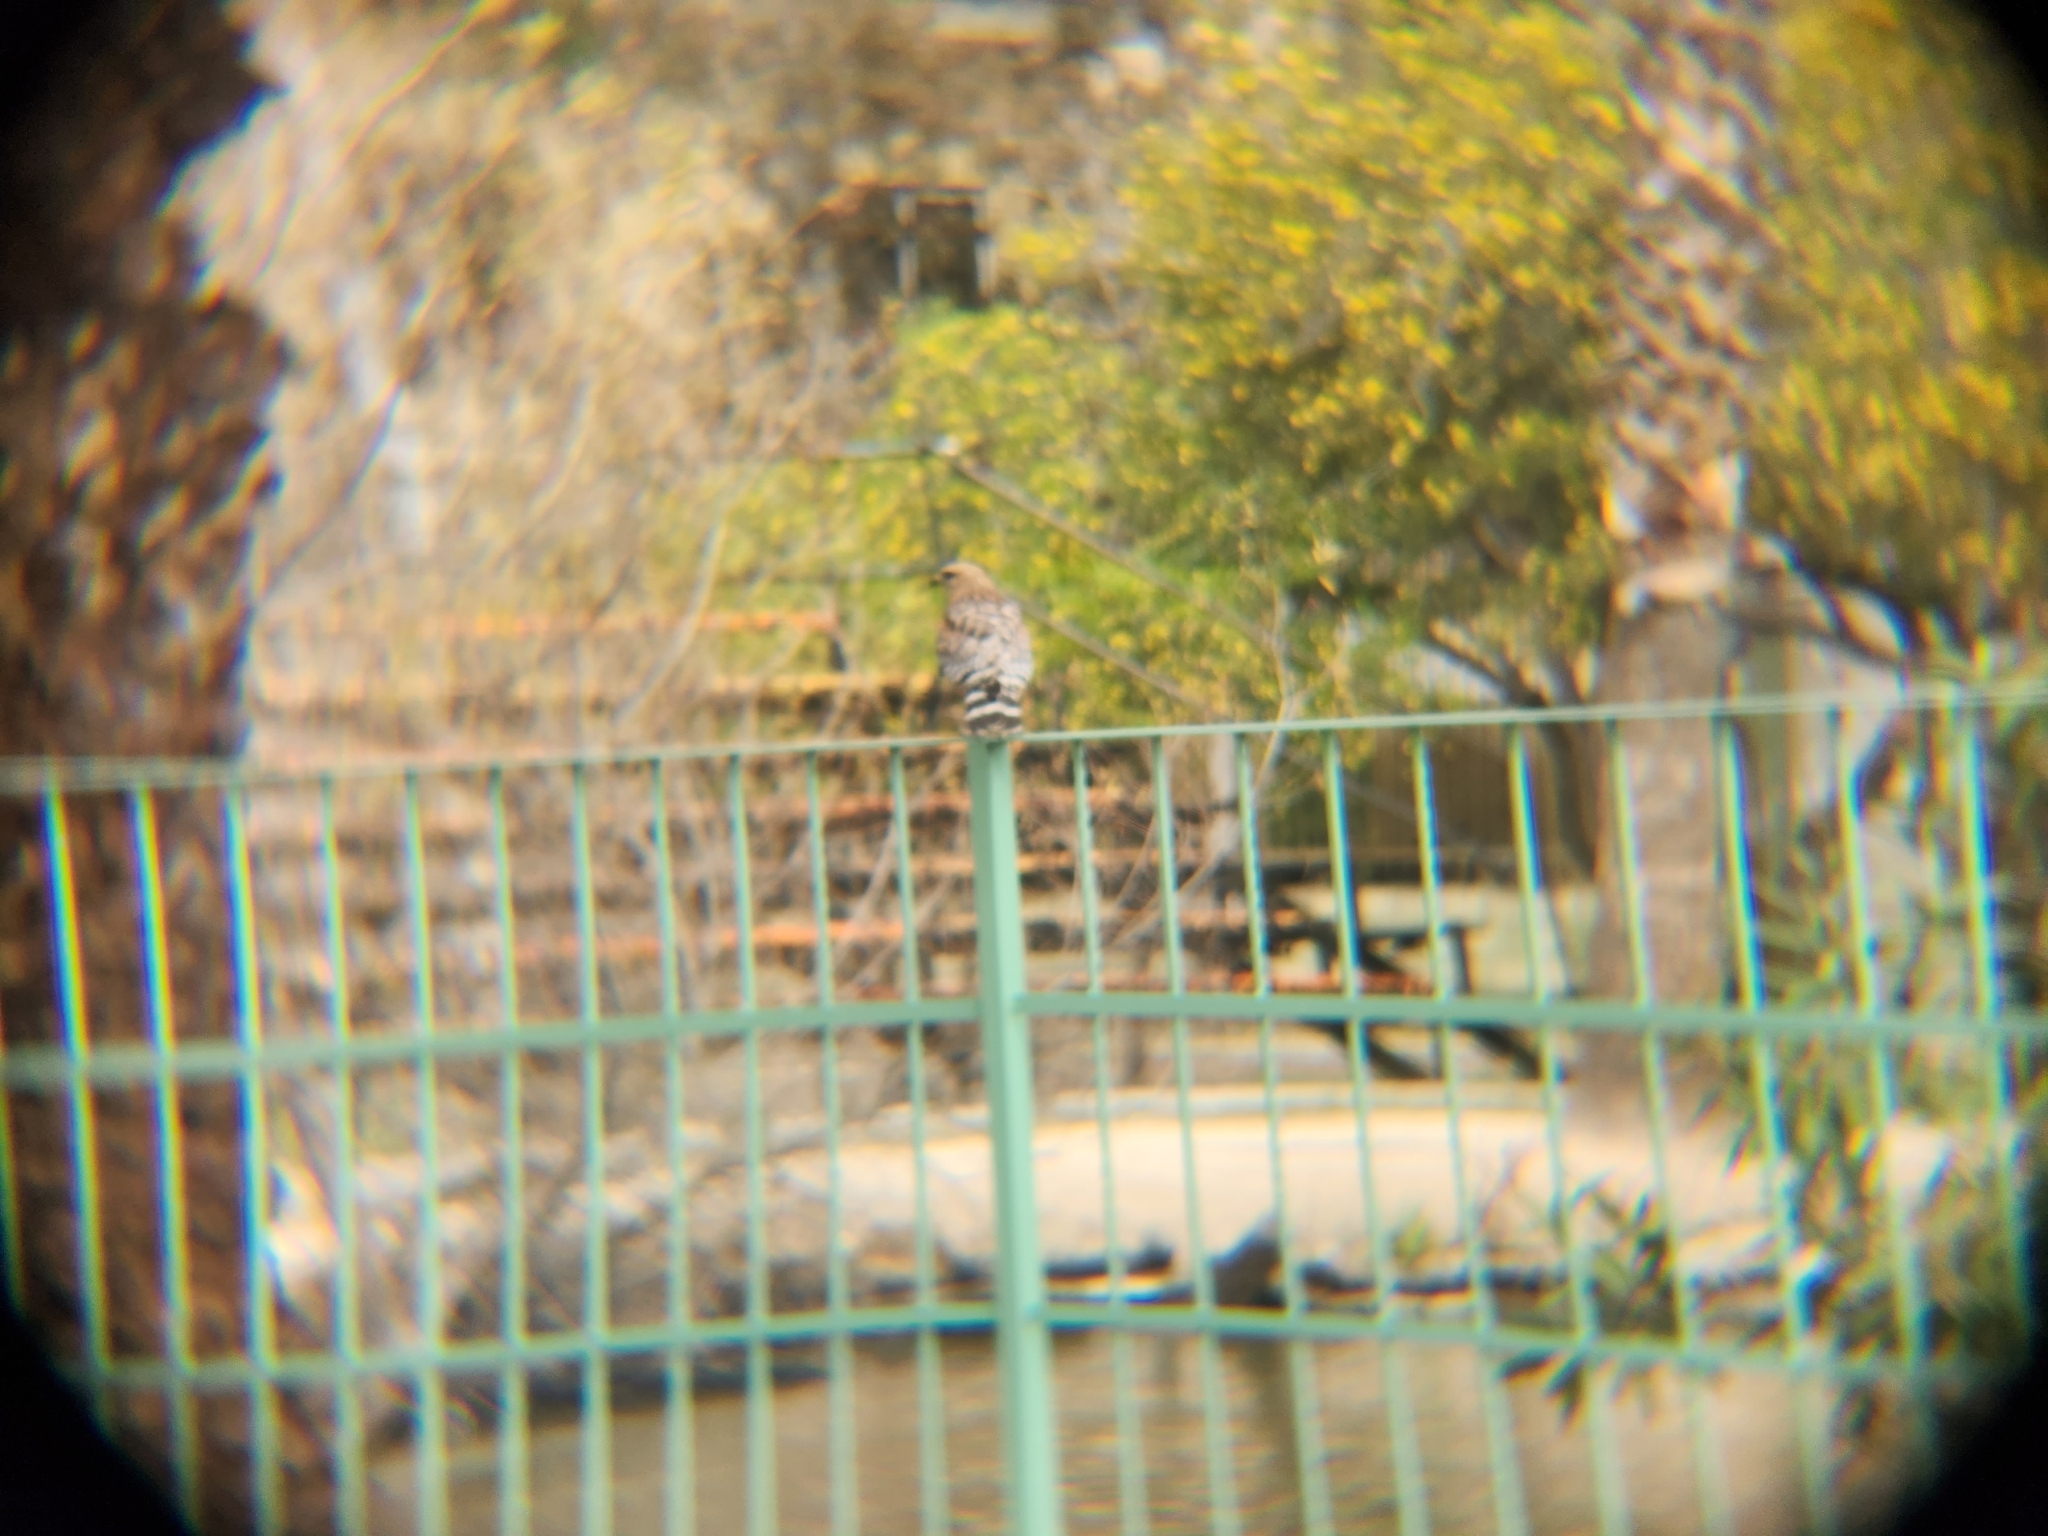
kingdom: Animalia
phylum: Chordata
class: Aves
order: Accipitriformes
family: Accipitridae
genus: Buteo
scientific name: Buteo lineatus
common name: Red-shouldered hawk
